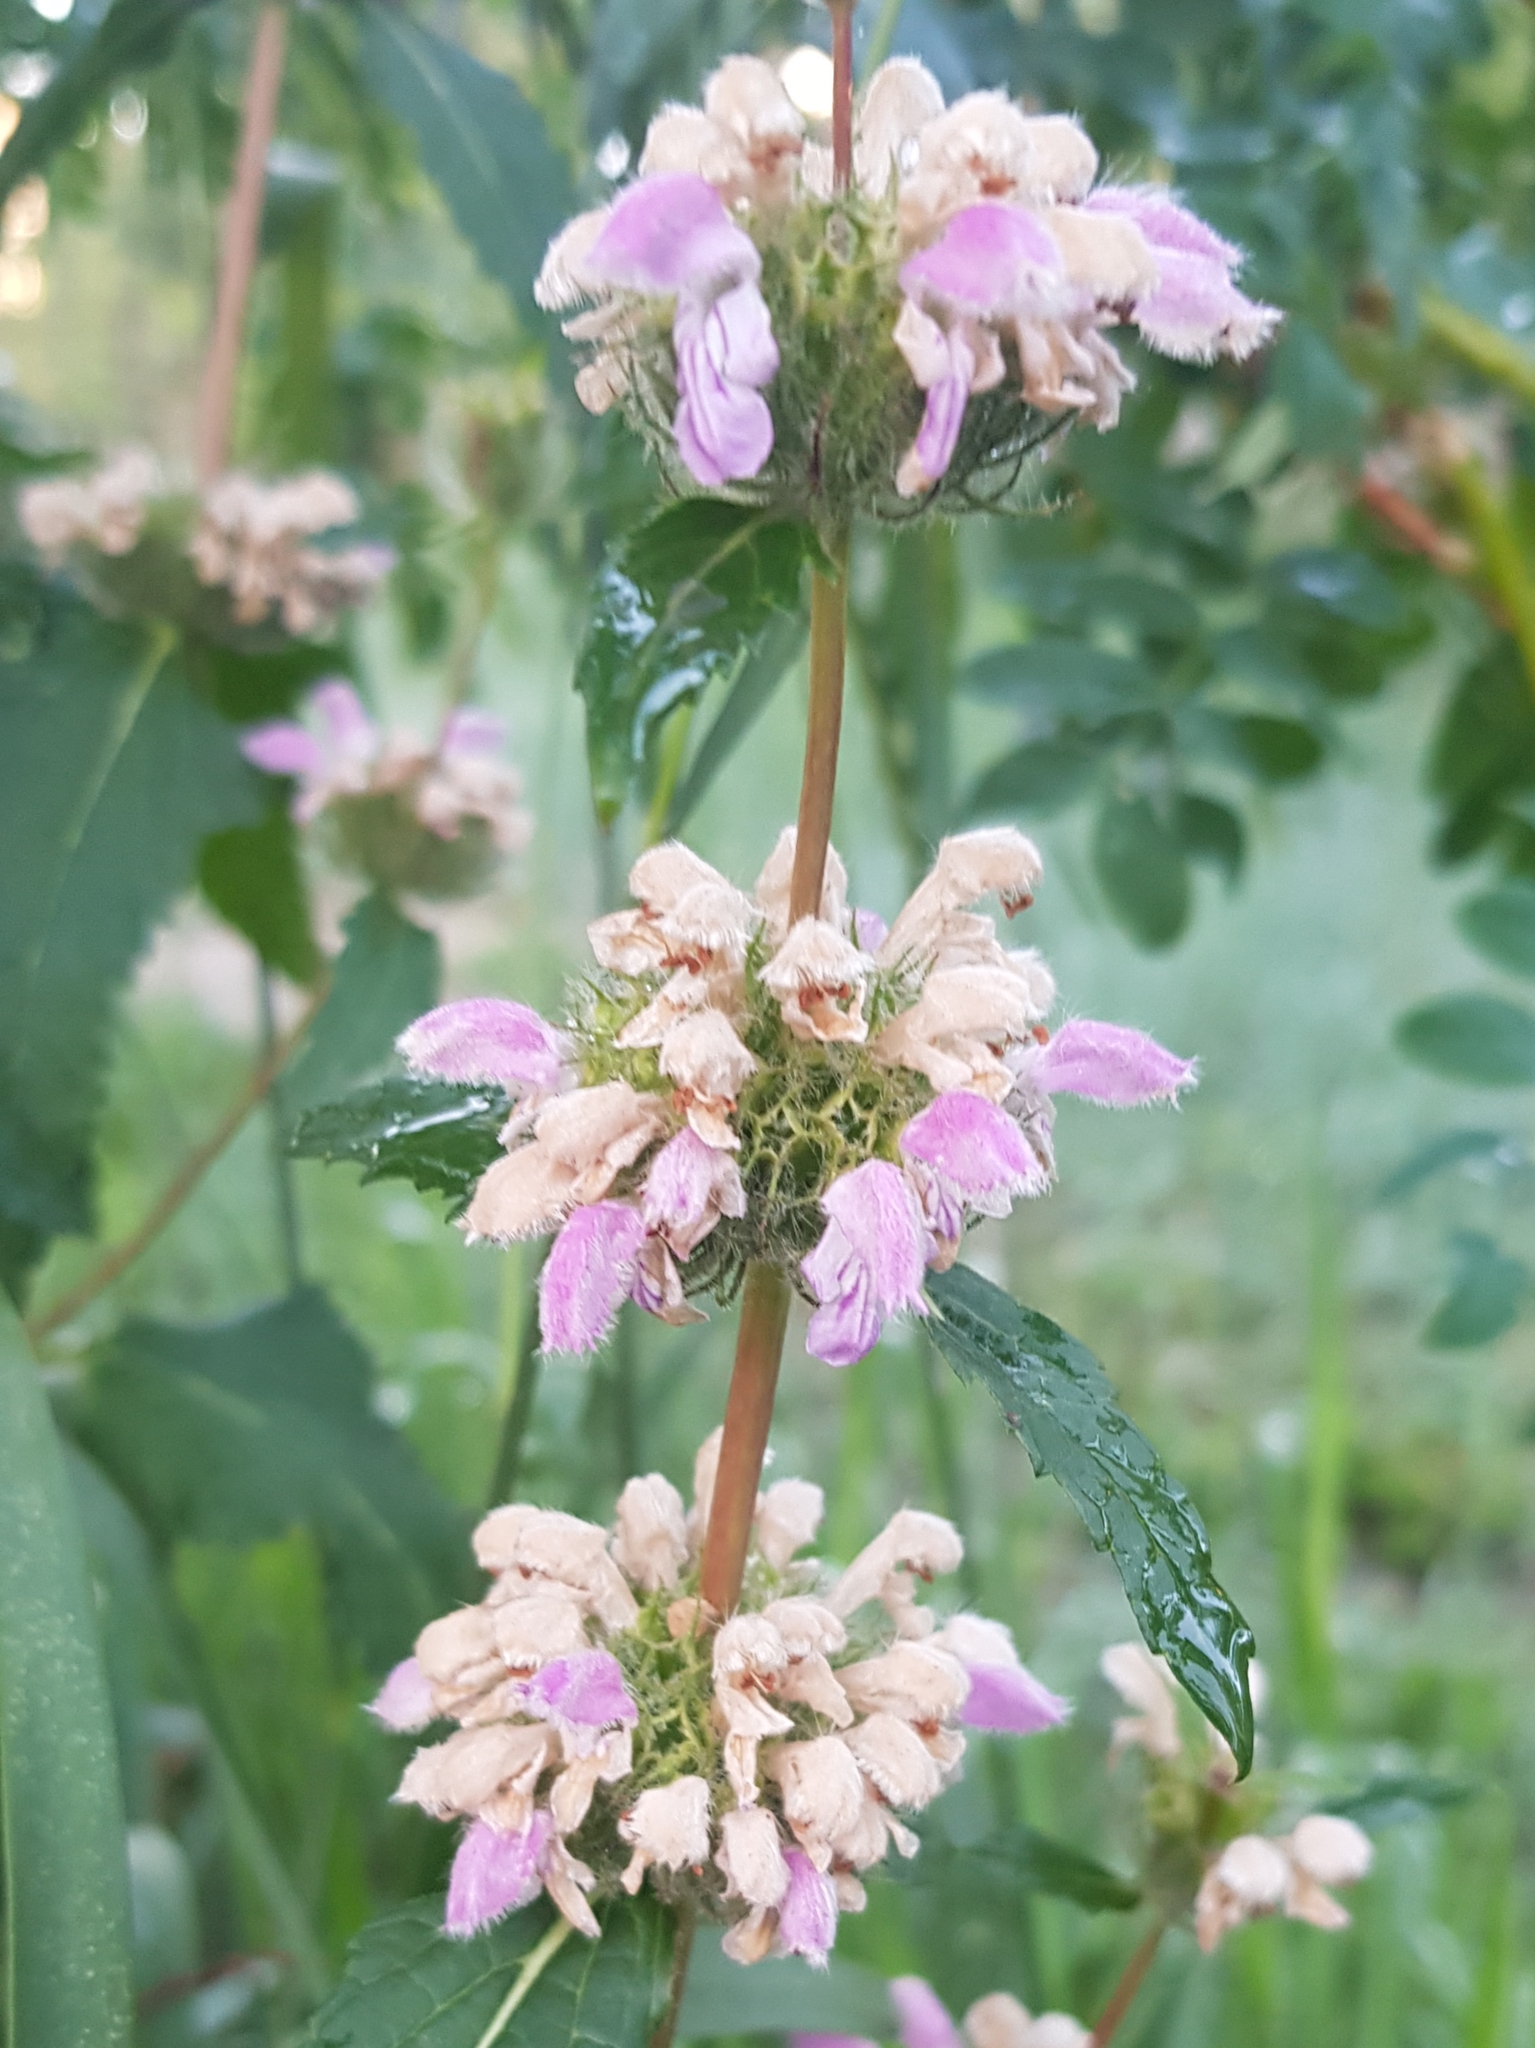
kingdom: Plantae
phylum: Tracheophyta
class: Magnoliopsida
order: Lamiales
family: Lamiaceae
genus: Phlomoides
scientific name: Phlomoides tuberosa
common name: Tuberous jerusalem sage
